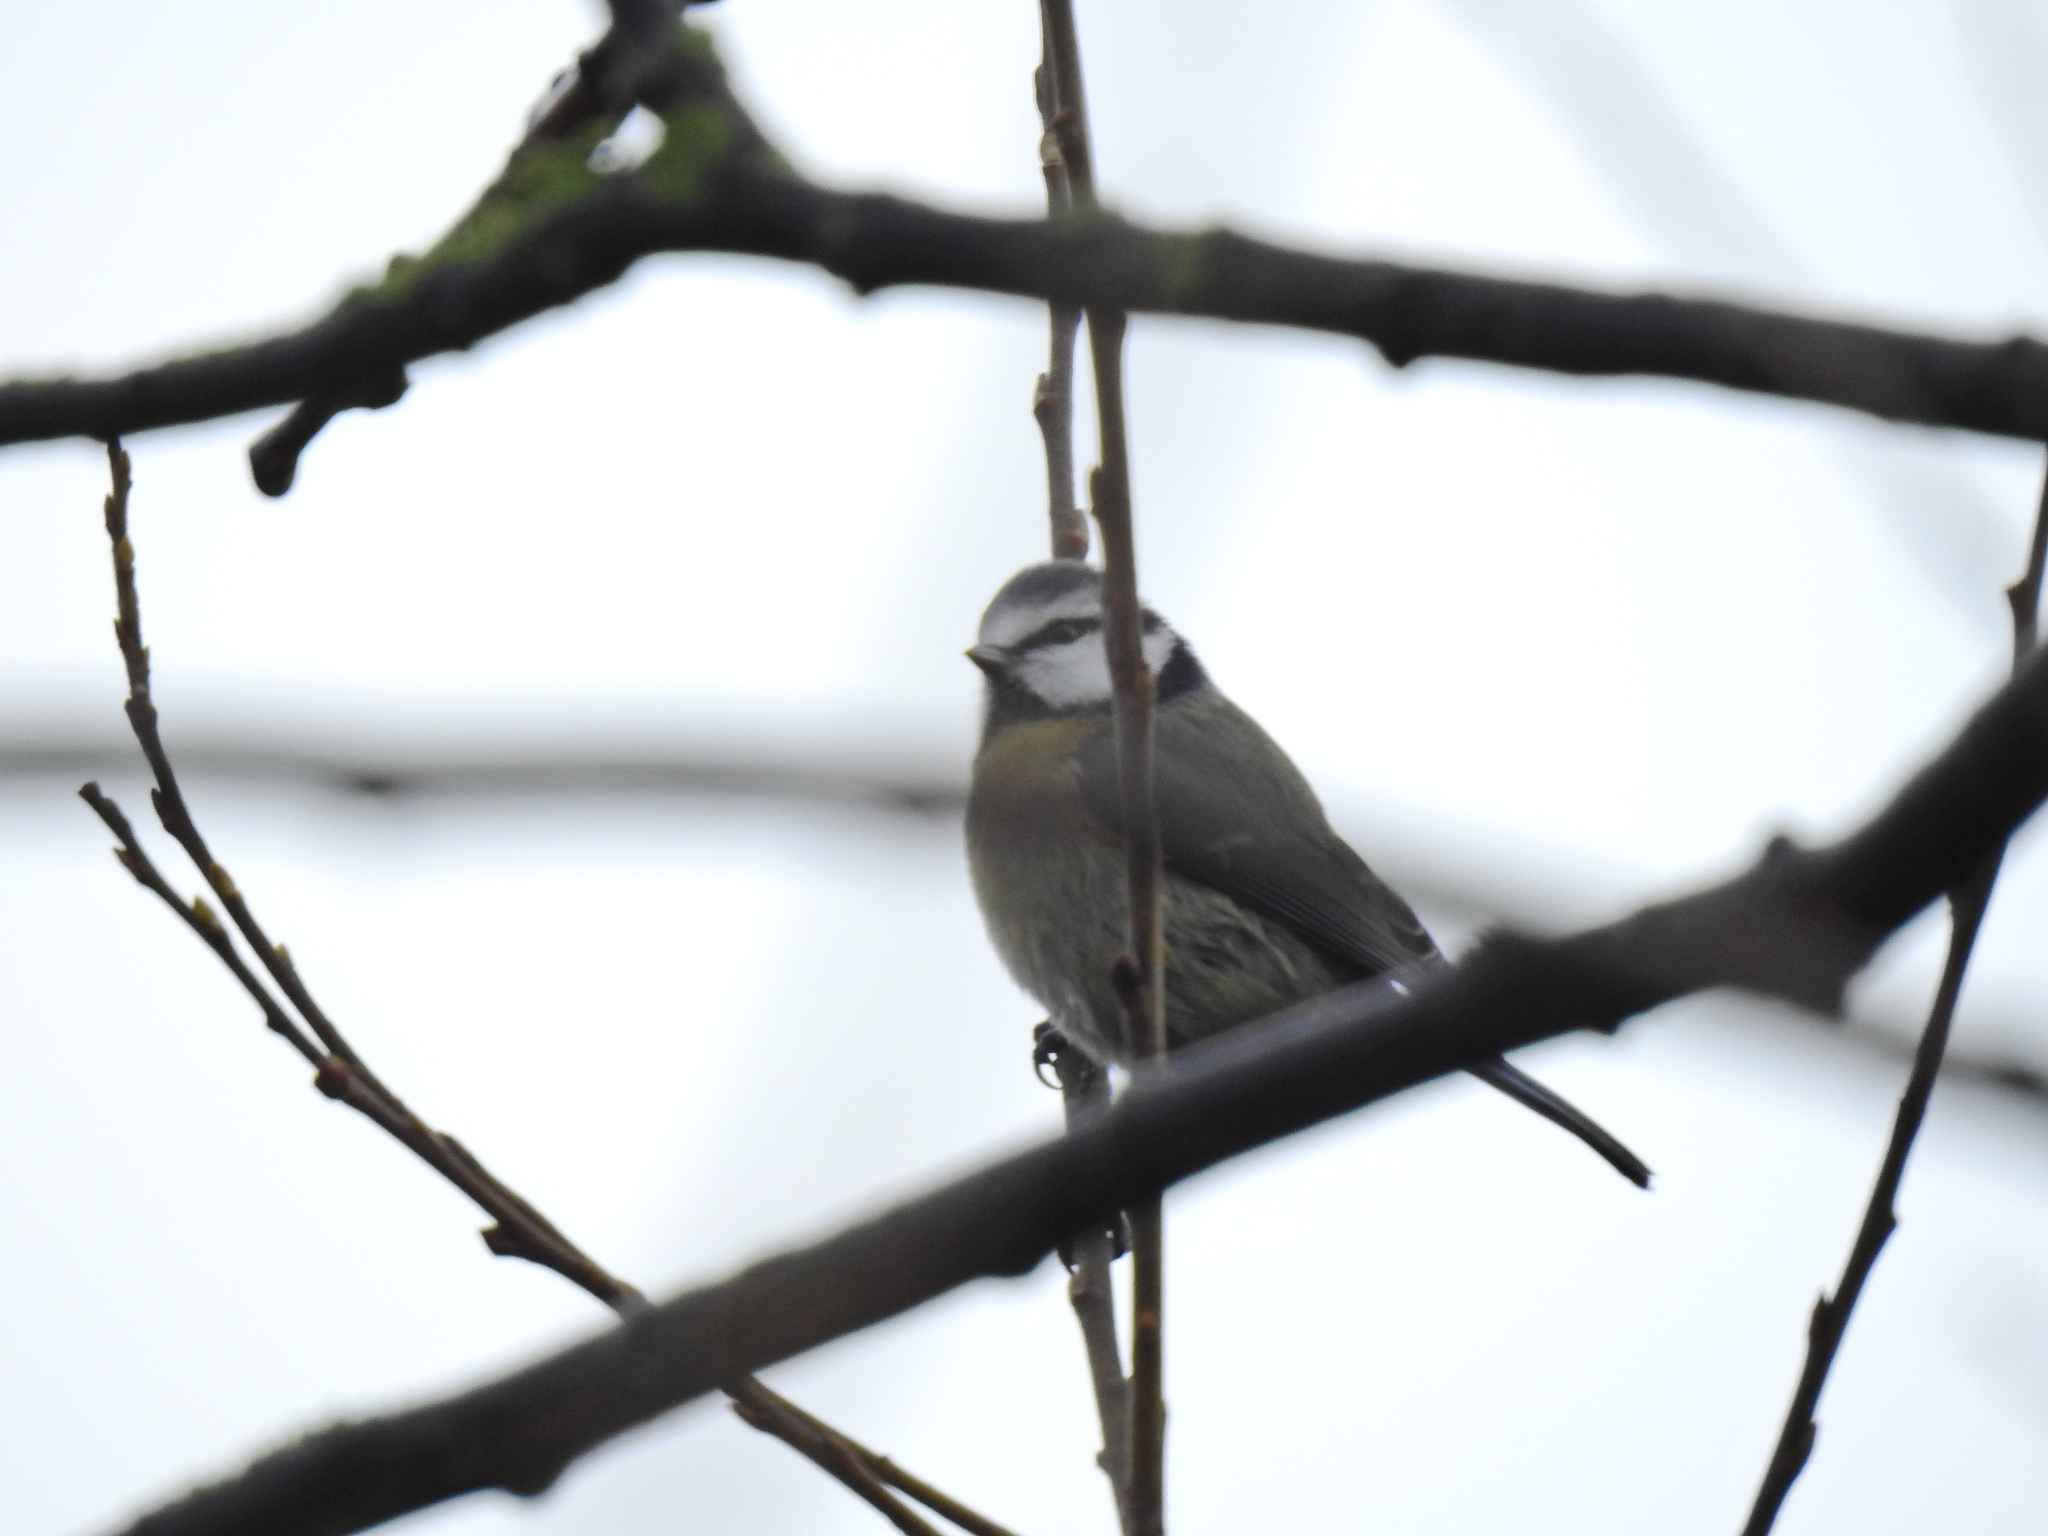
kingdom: Animalia
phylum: Chordata
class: Aves
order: Passeriformes
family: Paridae
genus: Cyanistes
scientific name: Cyanistes caeruleus
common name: Eurasian blue tit
